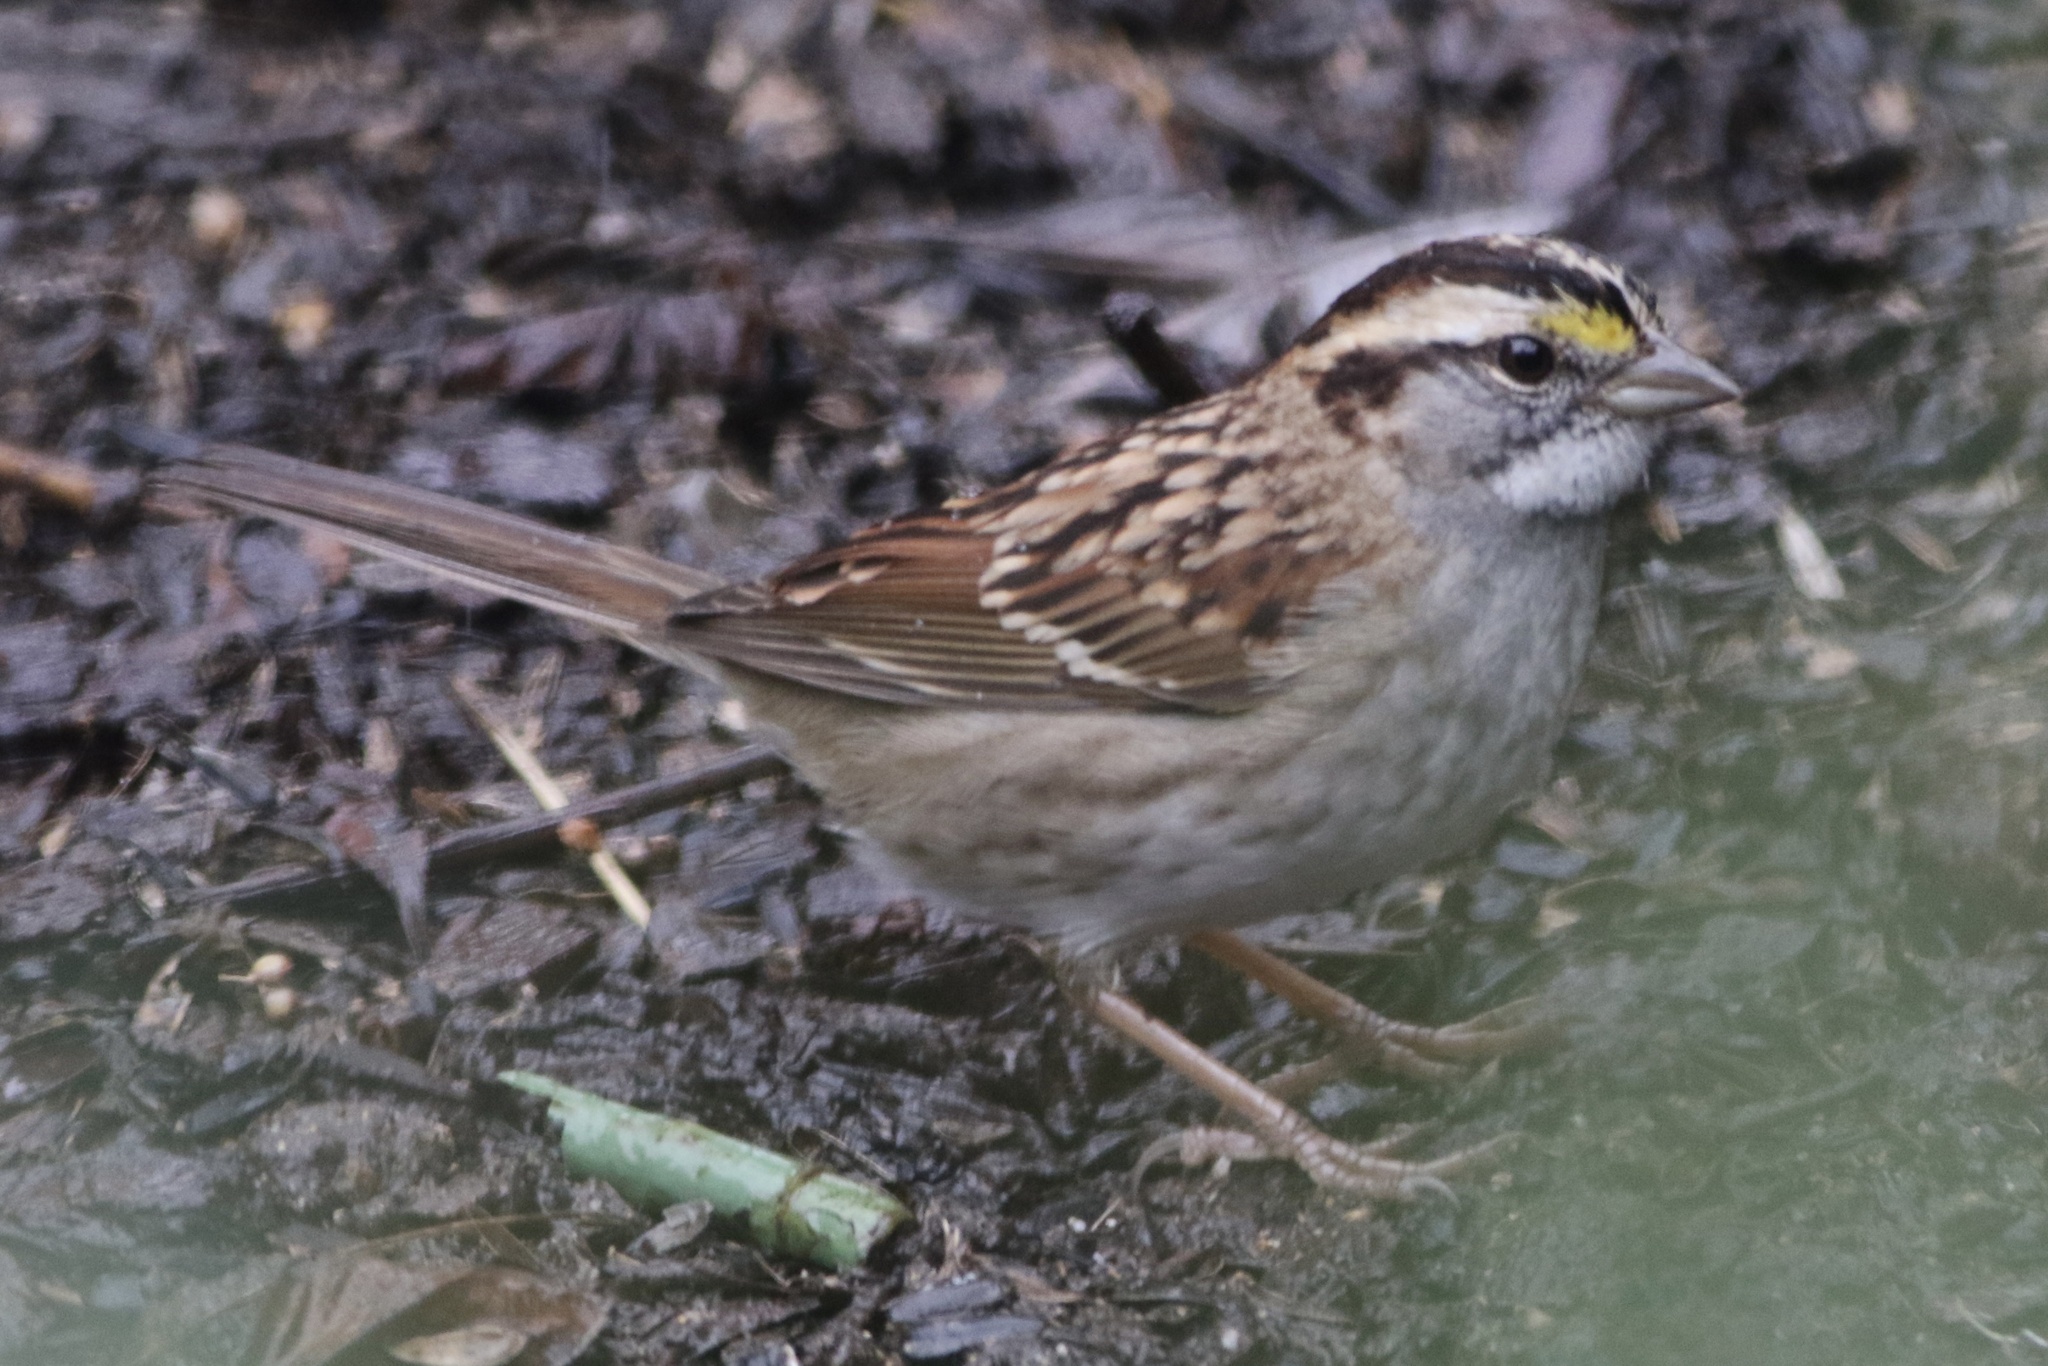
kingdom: Animalia
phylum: Chordata
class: Aves
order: Passeriformes
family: Passerellidae
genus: Zonotrichia
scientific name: Zonotrichia albicollis
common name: White-throated sparrow
